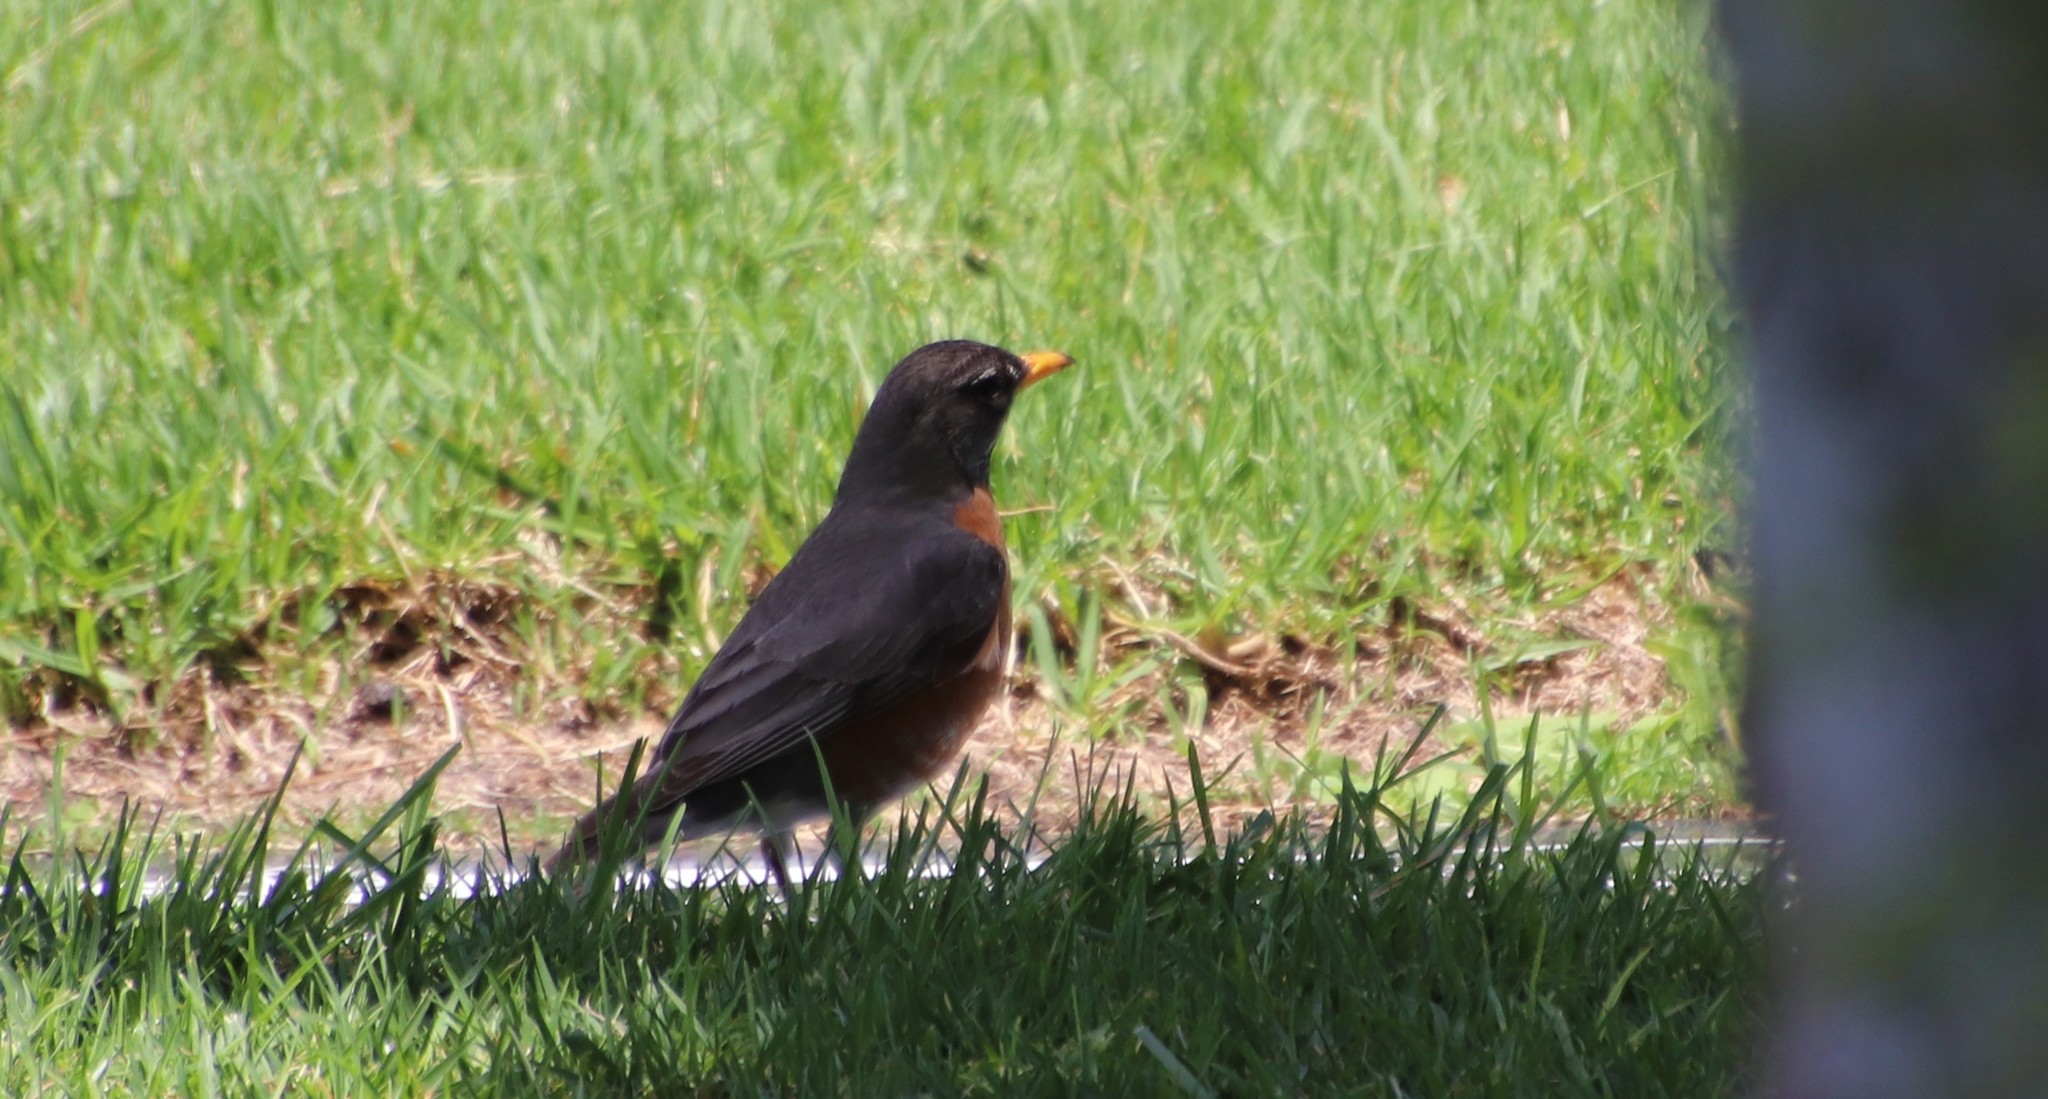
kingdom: Animalia
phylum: Chordata
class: Aves
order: Passeriformes
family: Turdidae
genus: Turdus
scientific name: Turdus migratorius
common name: American robin
